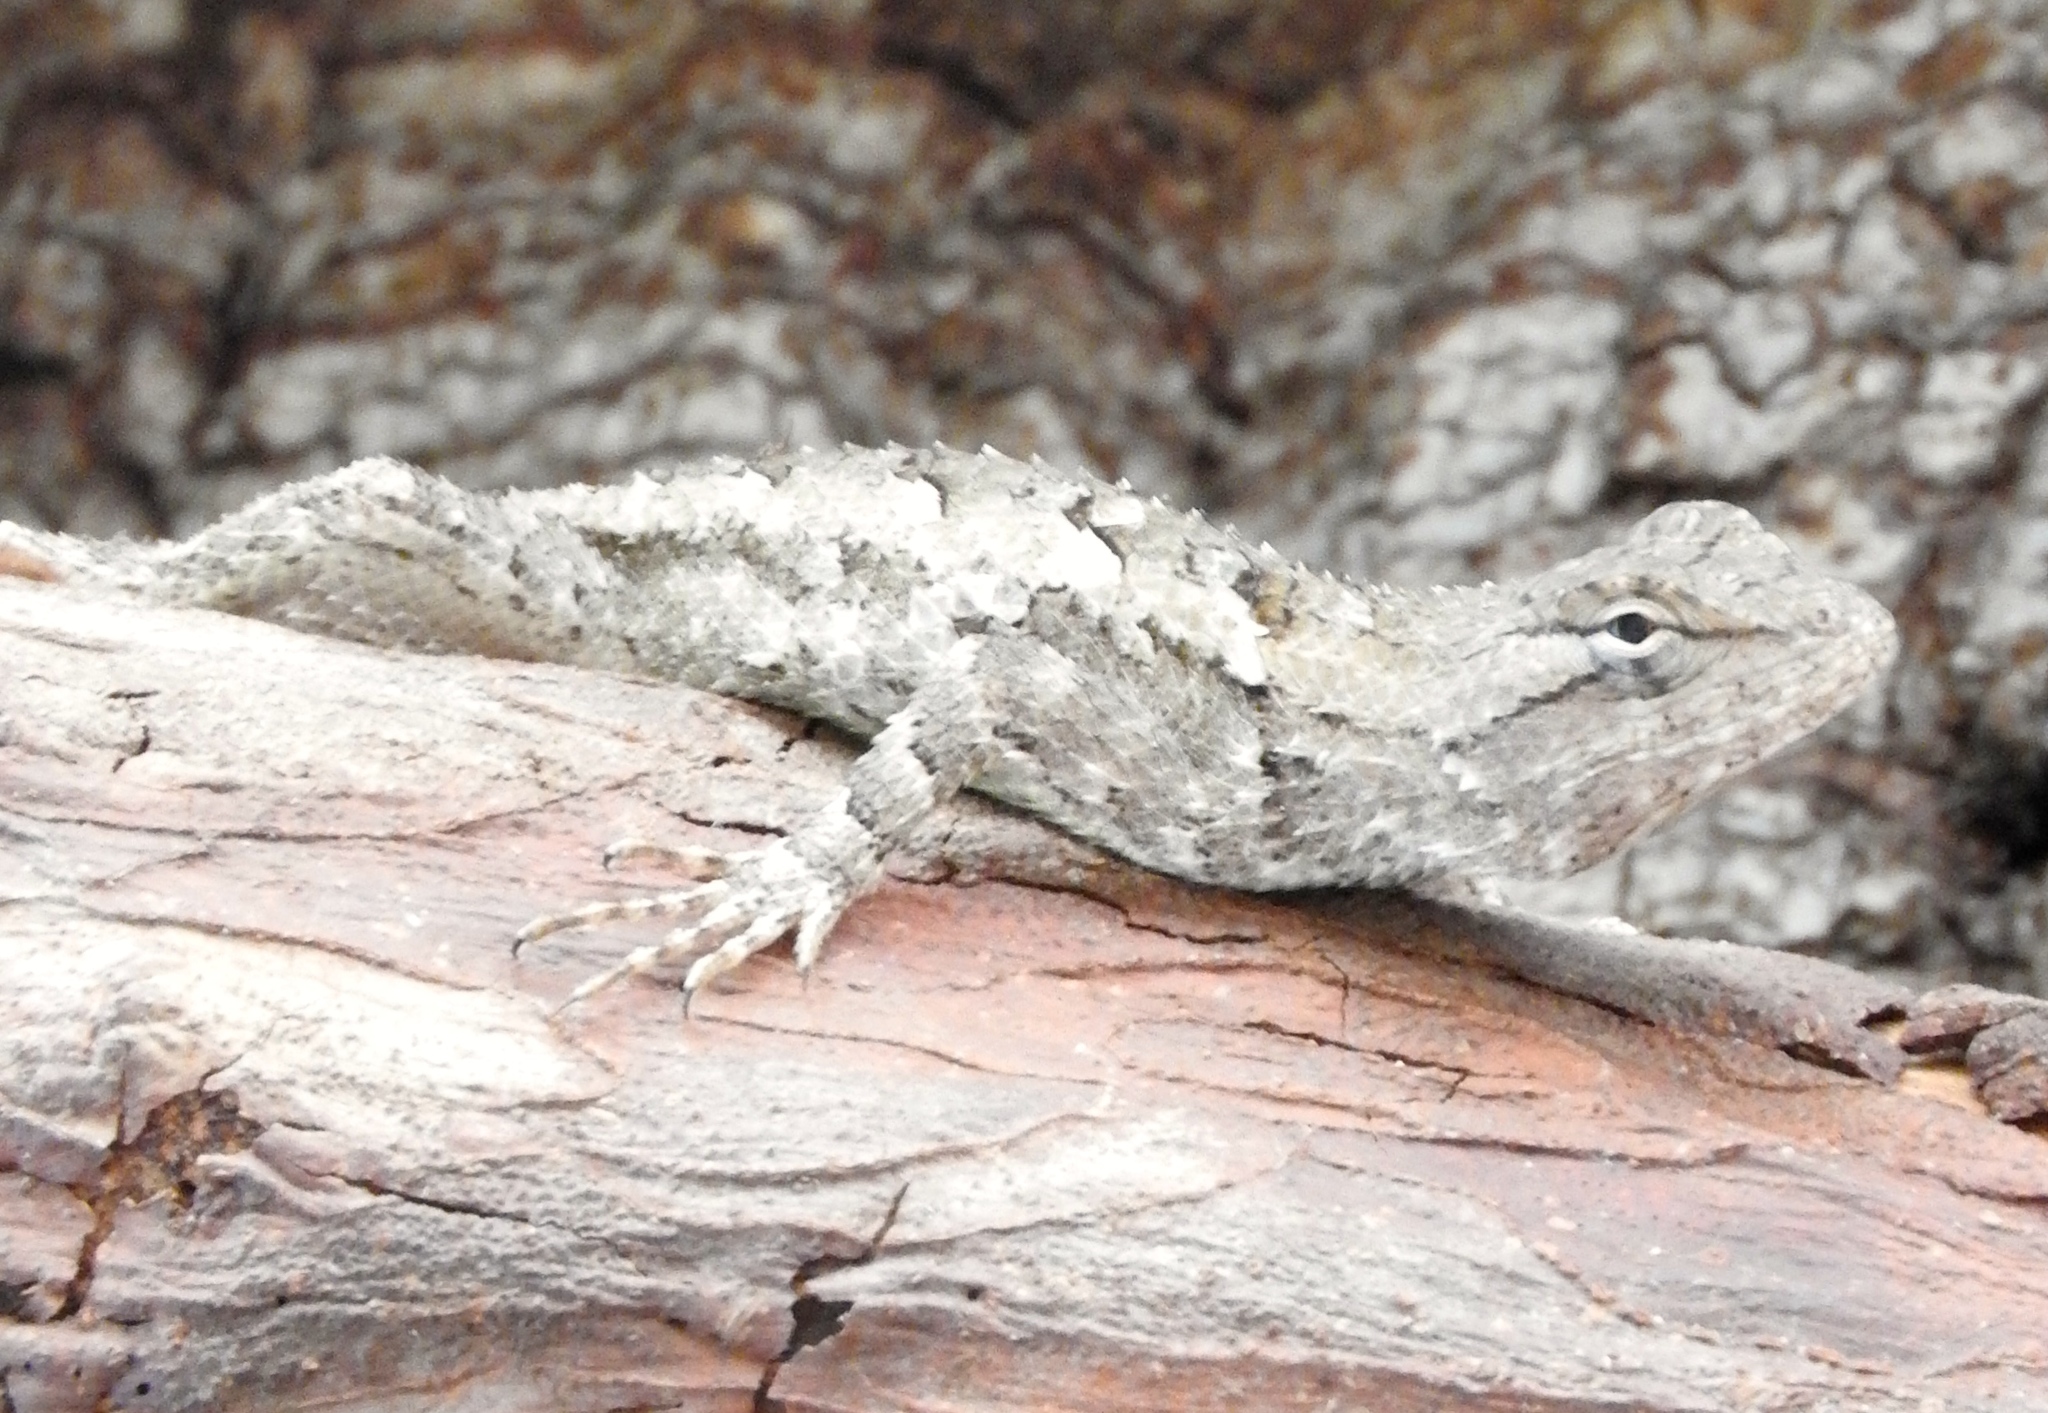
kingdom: Animalia
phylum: Chordata
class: Squamata
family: Phrynosomatidae
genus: Sceloporus
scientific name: Sceloporus clarkii
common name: Clark's spiny lizard
